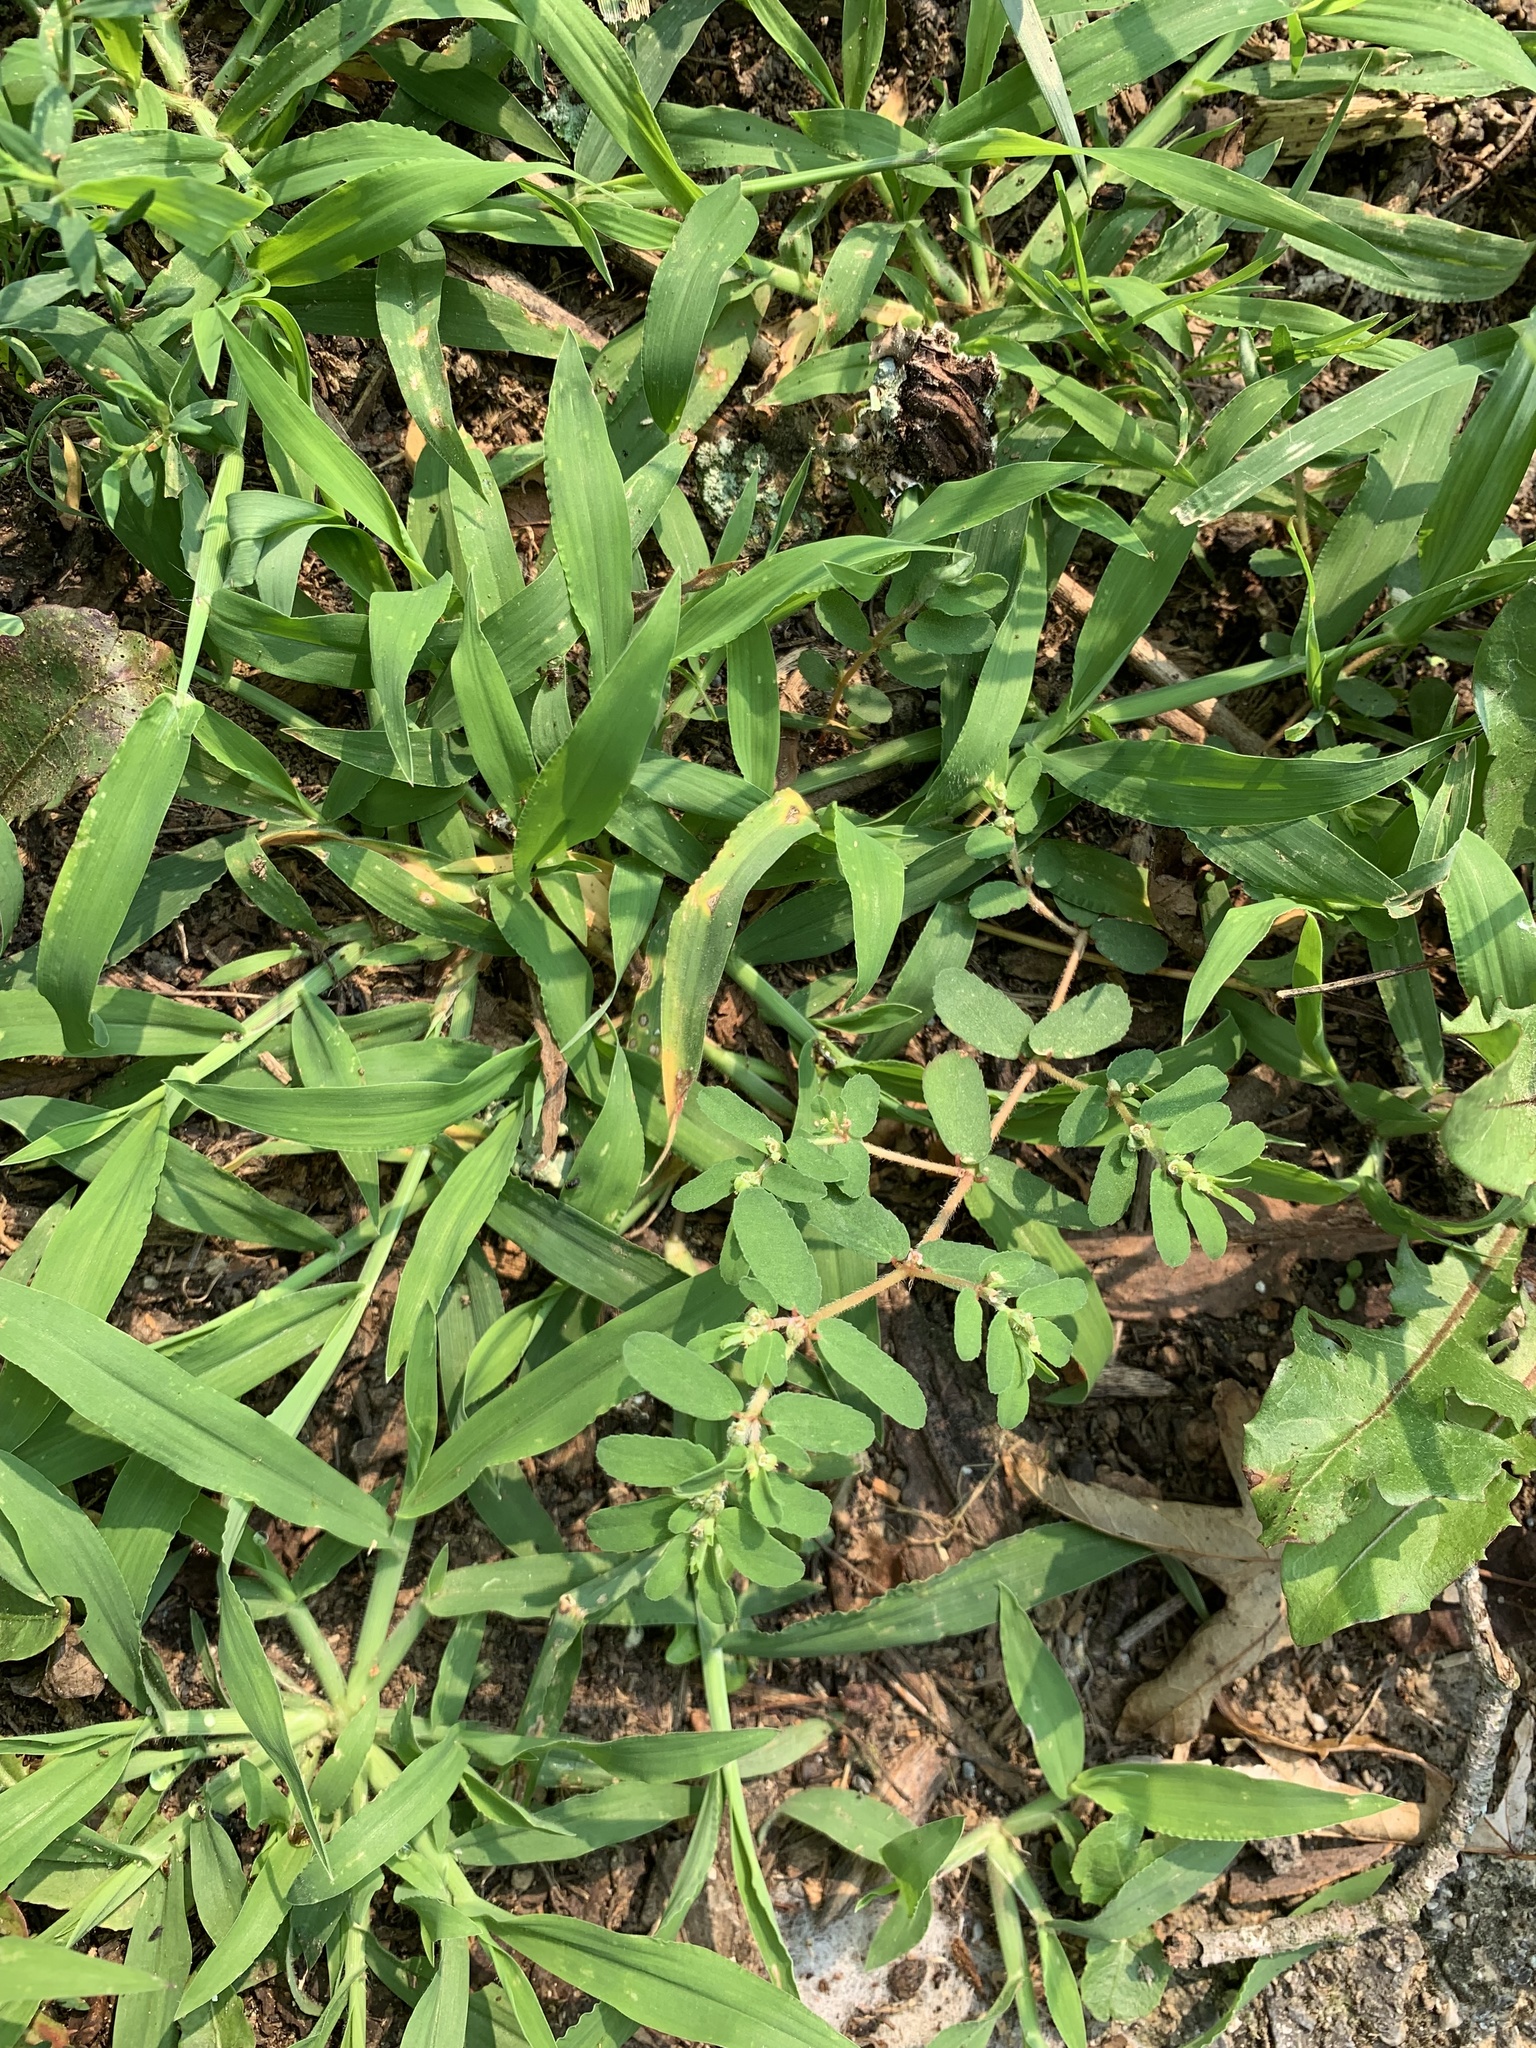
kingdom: Plantae
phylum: Tracheophyta
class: Magnoliopsida
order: Malpighiales
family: Euphorbiaceae
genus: Euphorbia
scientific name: Euphorbia maculata
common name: Spotted spurge
